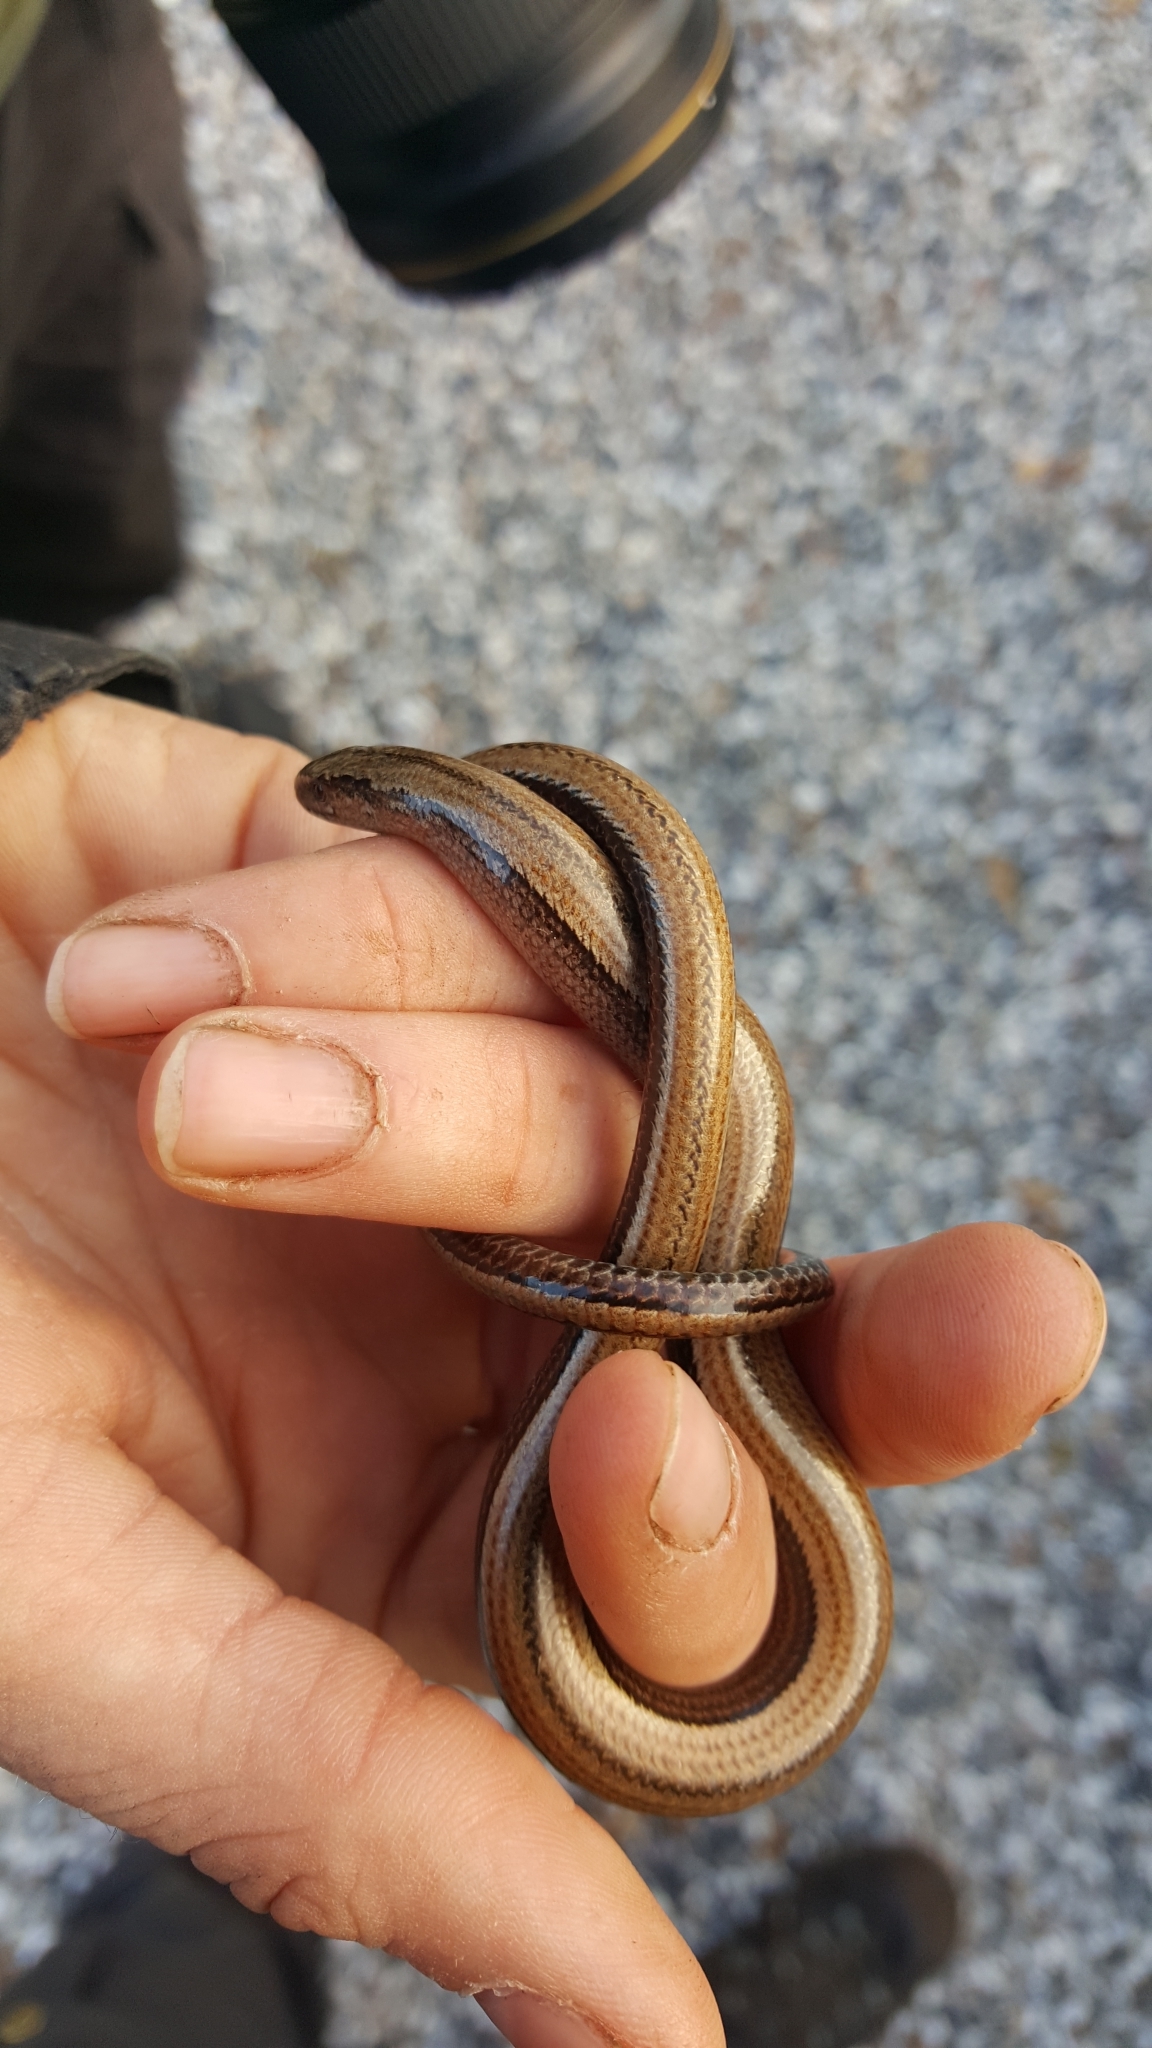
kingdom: Animalia
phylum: Chordata
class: Squamata
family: Anguidae
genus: Anguis
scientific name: Anguis fragilis
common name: Slow worm
